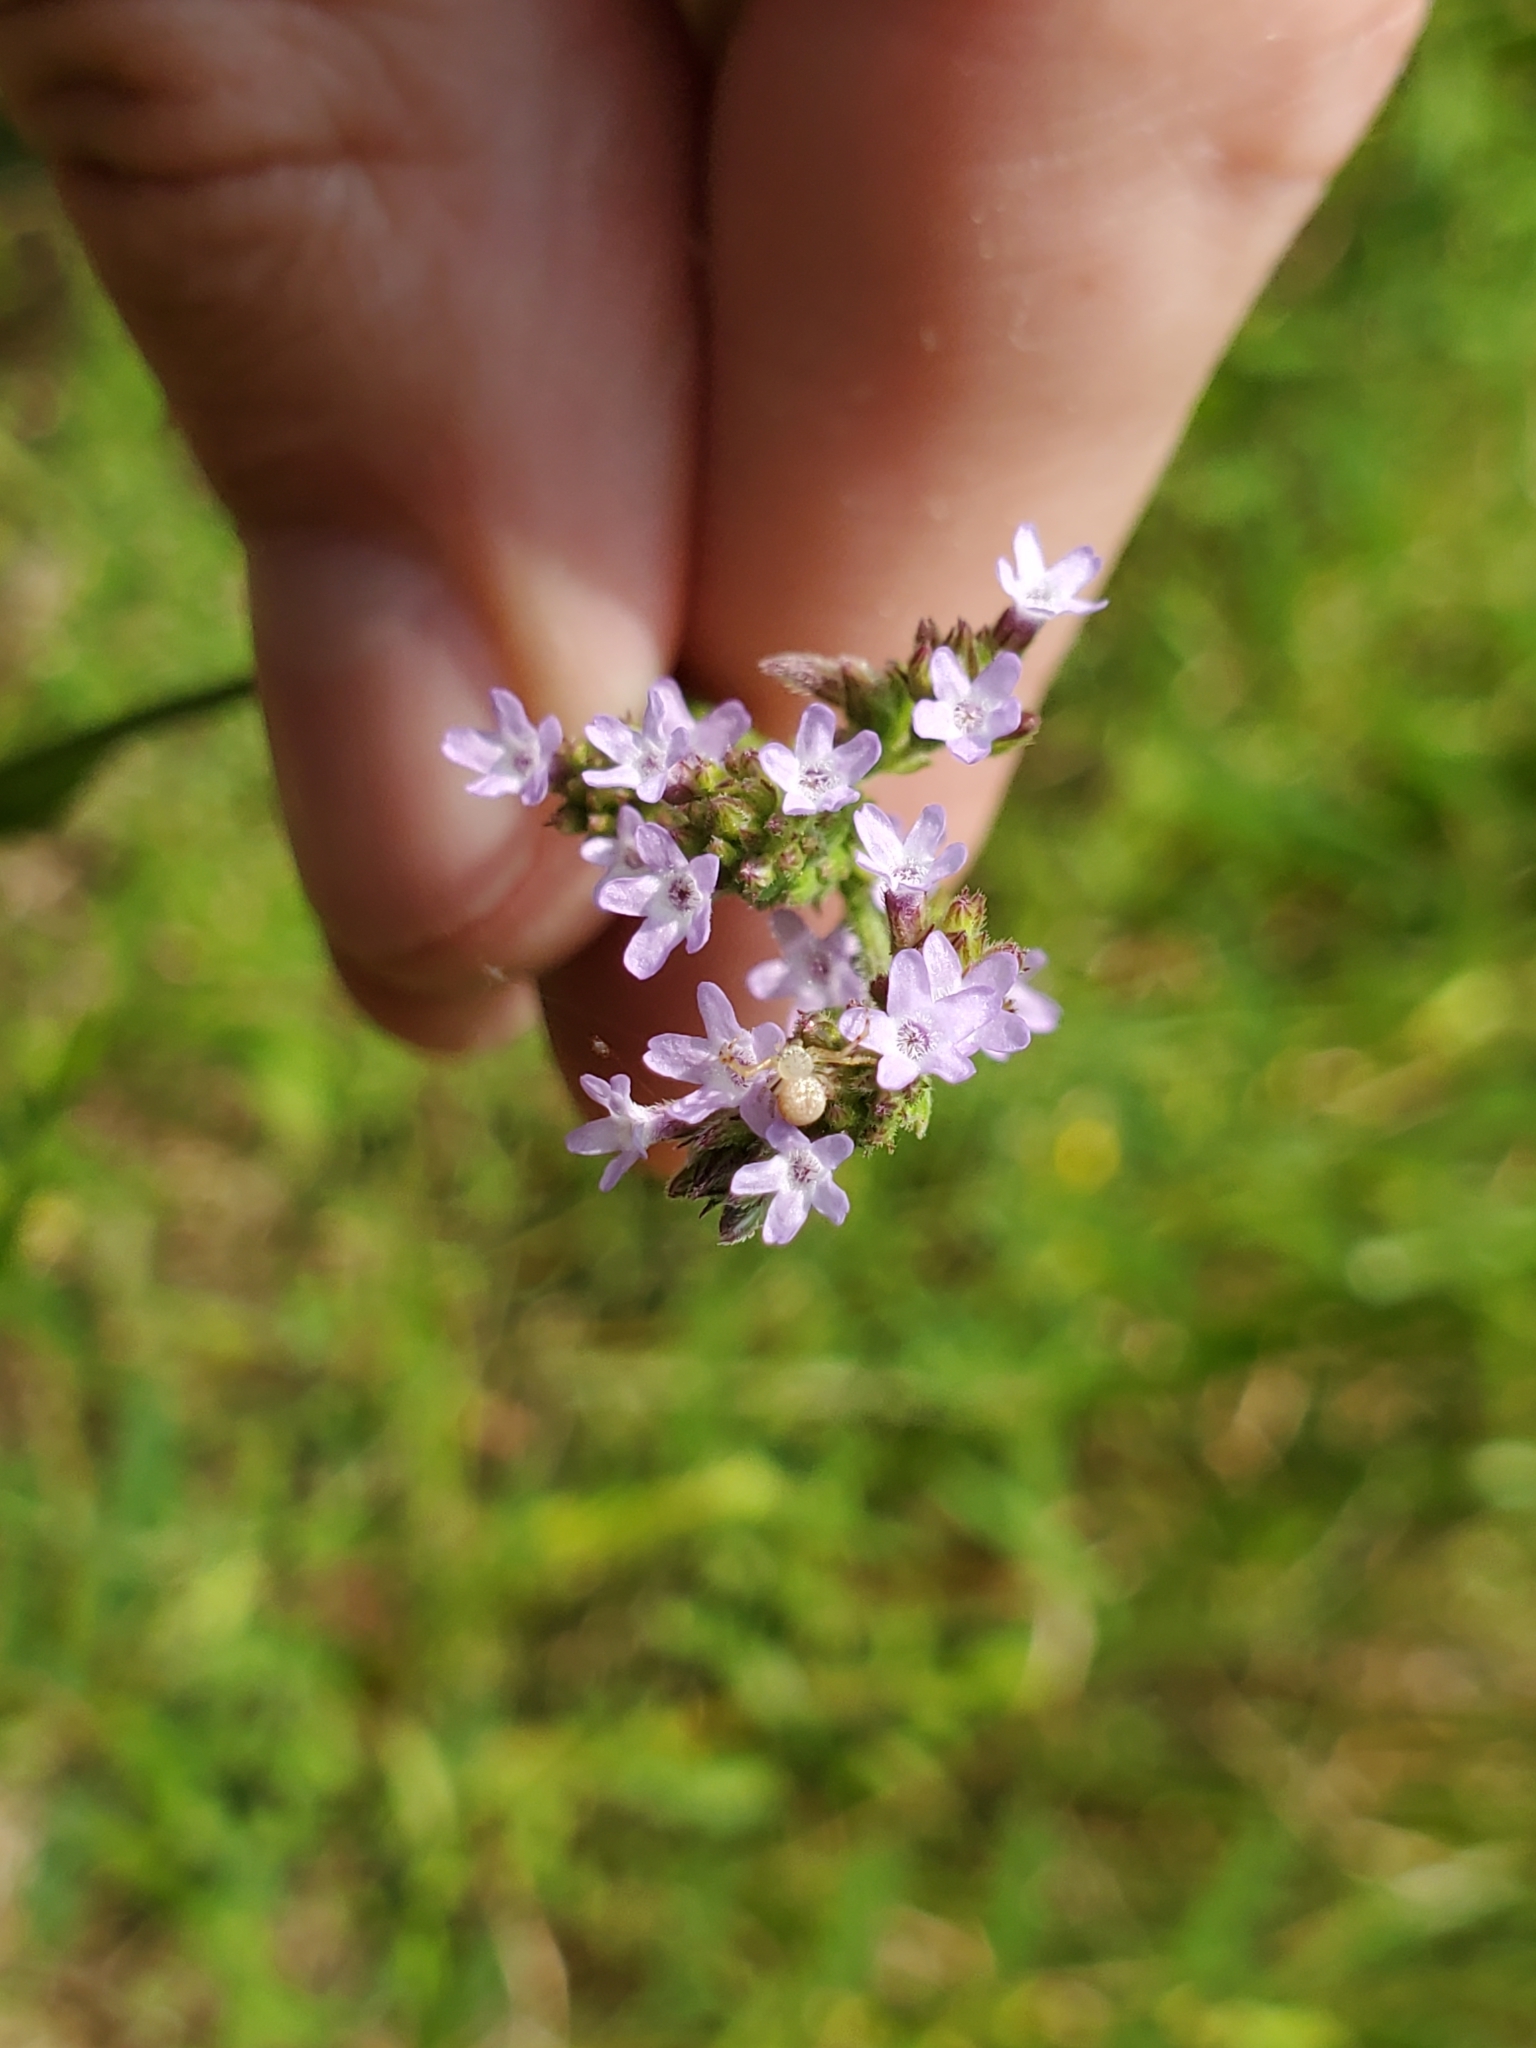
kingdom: Plantae
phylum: Tracheophyta
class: Magnoliopsida
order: Lamiales
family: Verbenaceae
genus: Verbena
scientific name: Verbena brasiliensis
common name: Brazilian vervain
